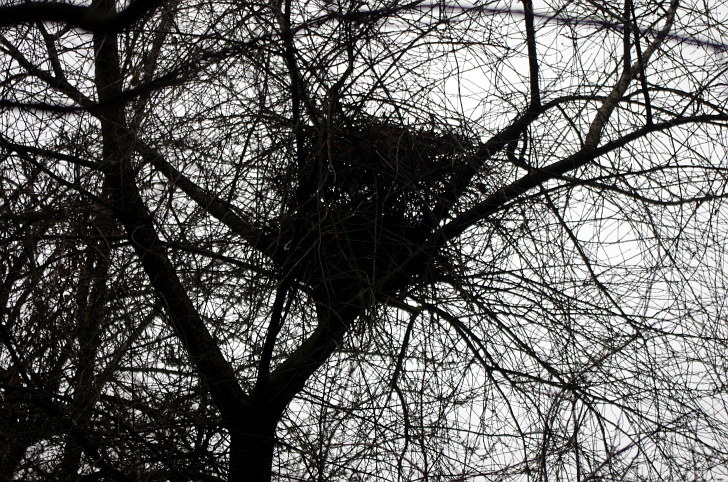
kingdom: Animalia
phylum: Chordata
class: Aves
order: Passeriformes
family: Corvidae
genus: Pica
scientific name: Pica pica
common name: Eurasian magpie
